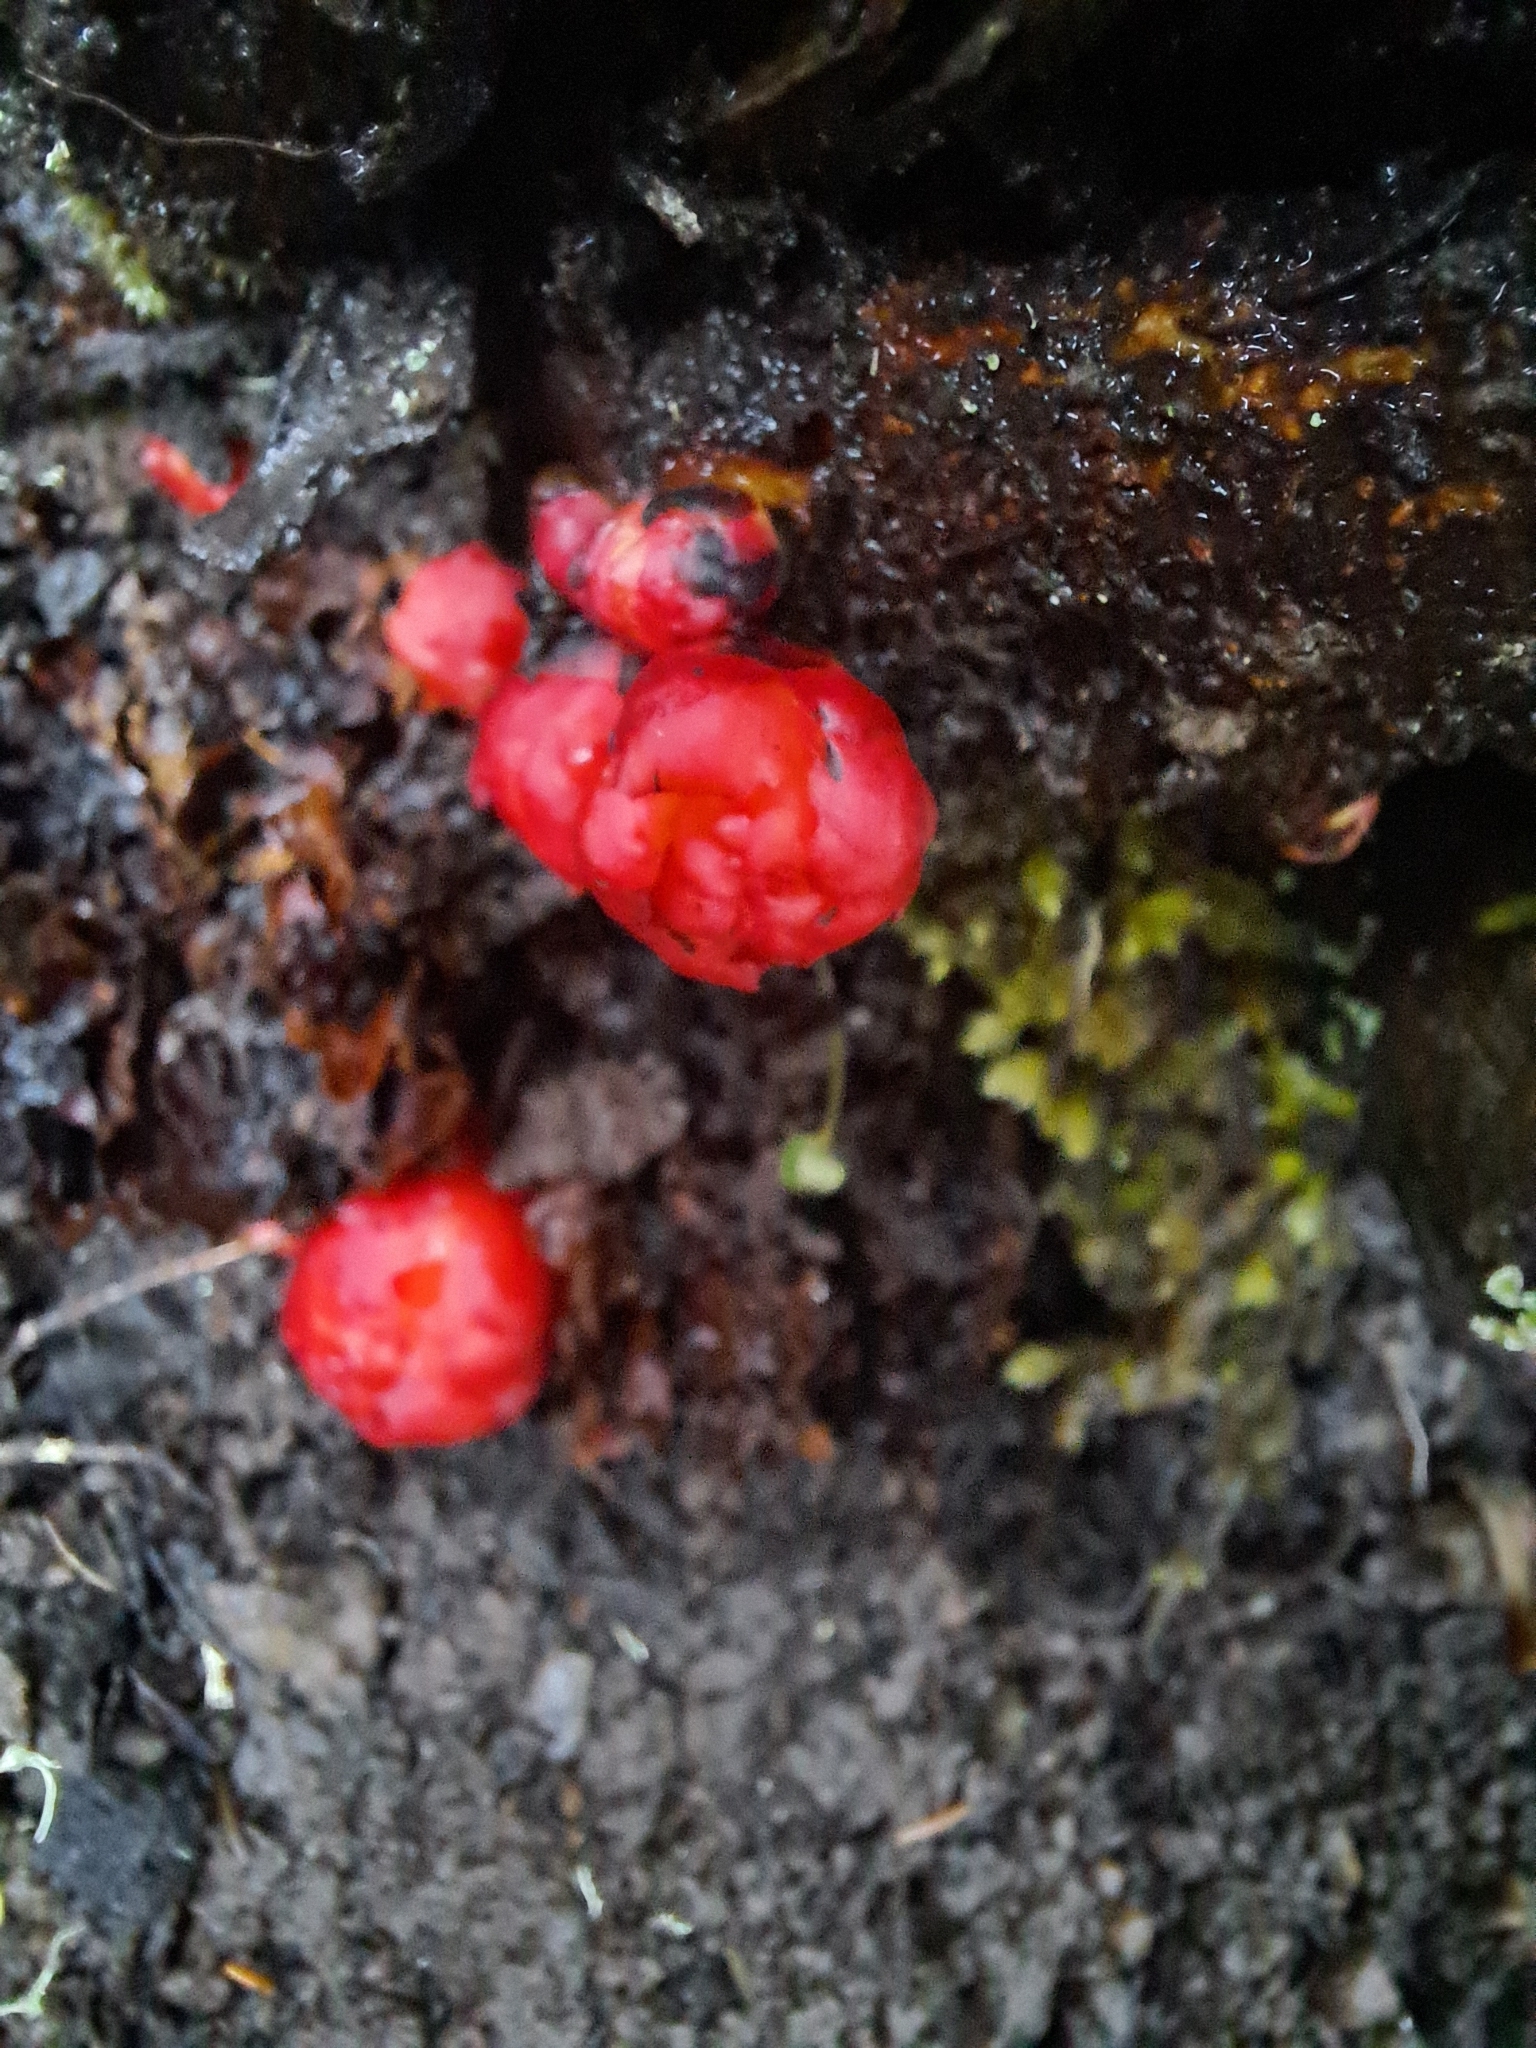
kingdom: Plantae
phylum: Tracheophyta
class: Magnoliopsida
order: Malvales
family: Cytinaceae
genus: Cytinus
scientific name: Cytinus hypocistis
